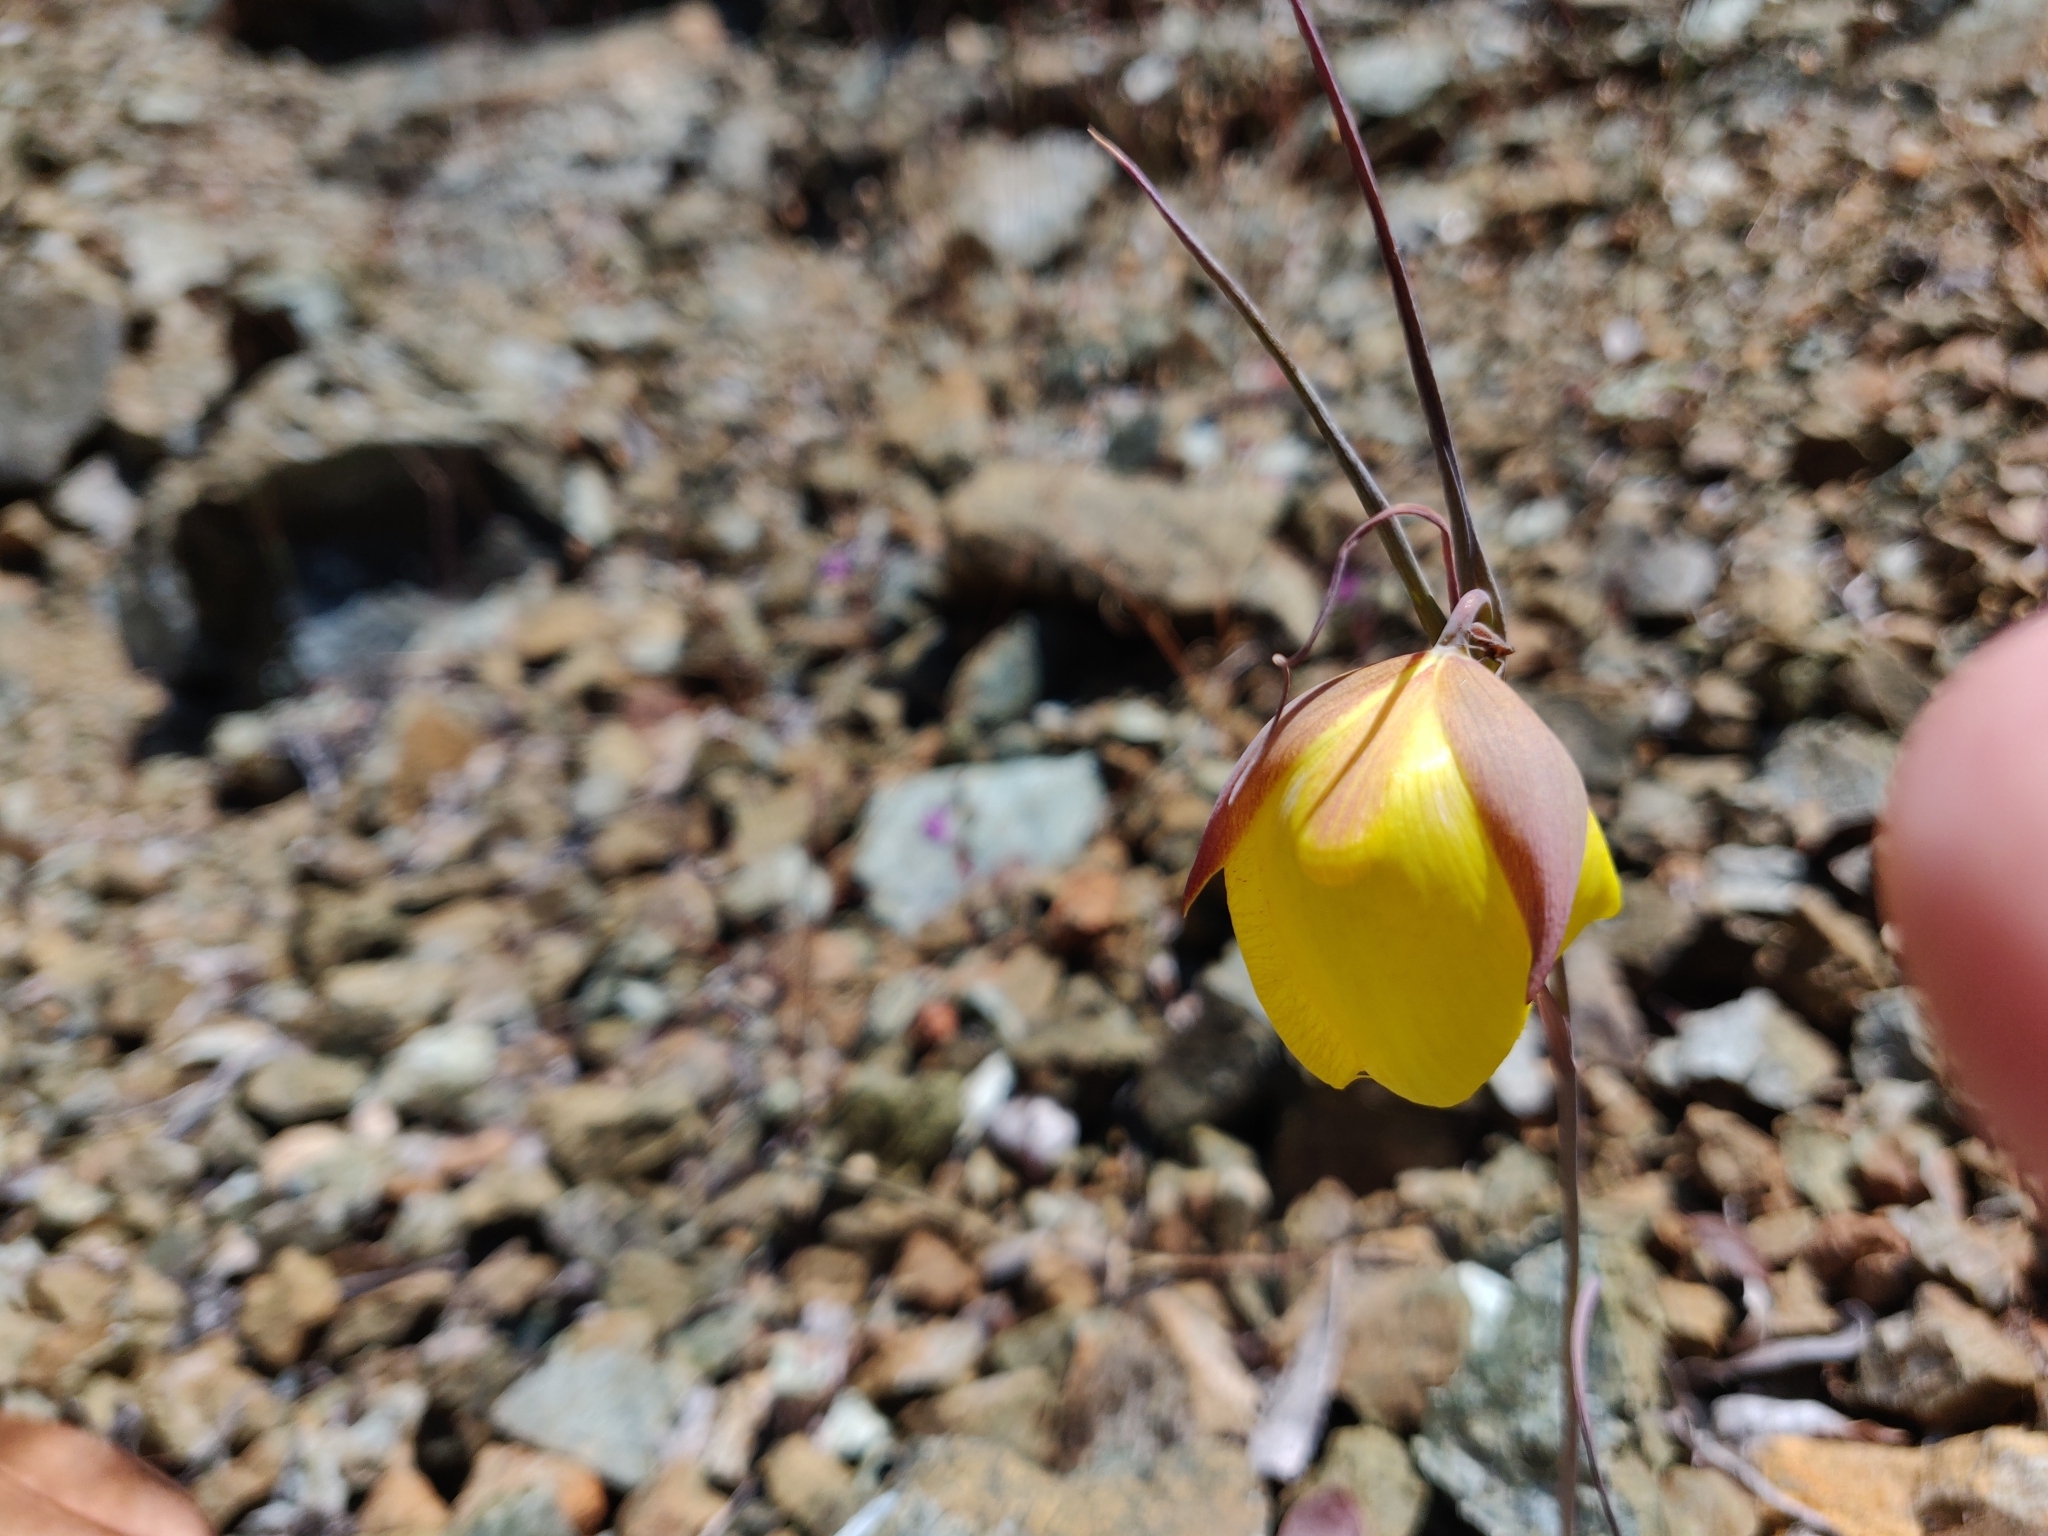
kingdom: Plantae
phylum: Tracheophyta
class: Liliopsida
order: Liliales
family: Liliaceae
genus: Calochortus
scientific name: Calochortus raichei
